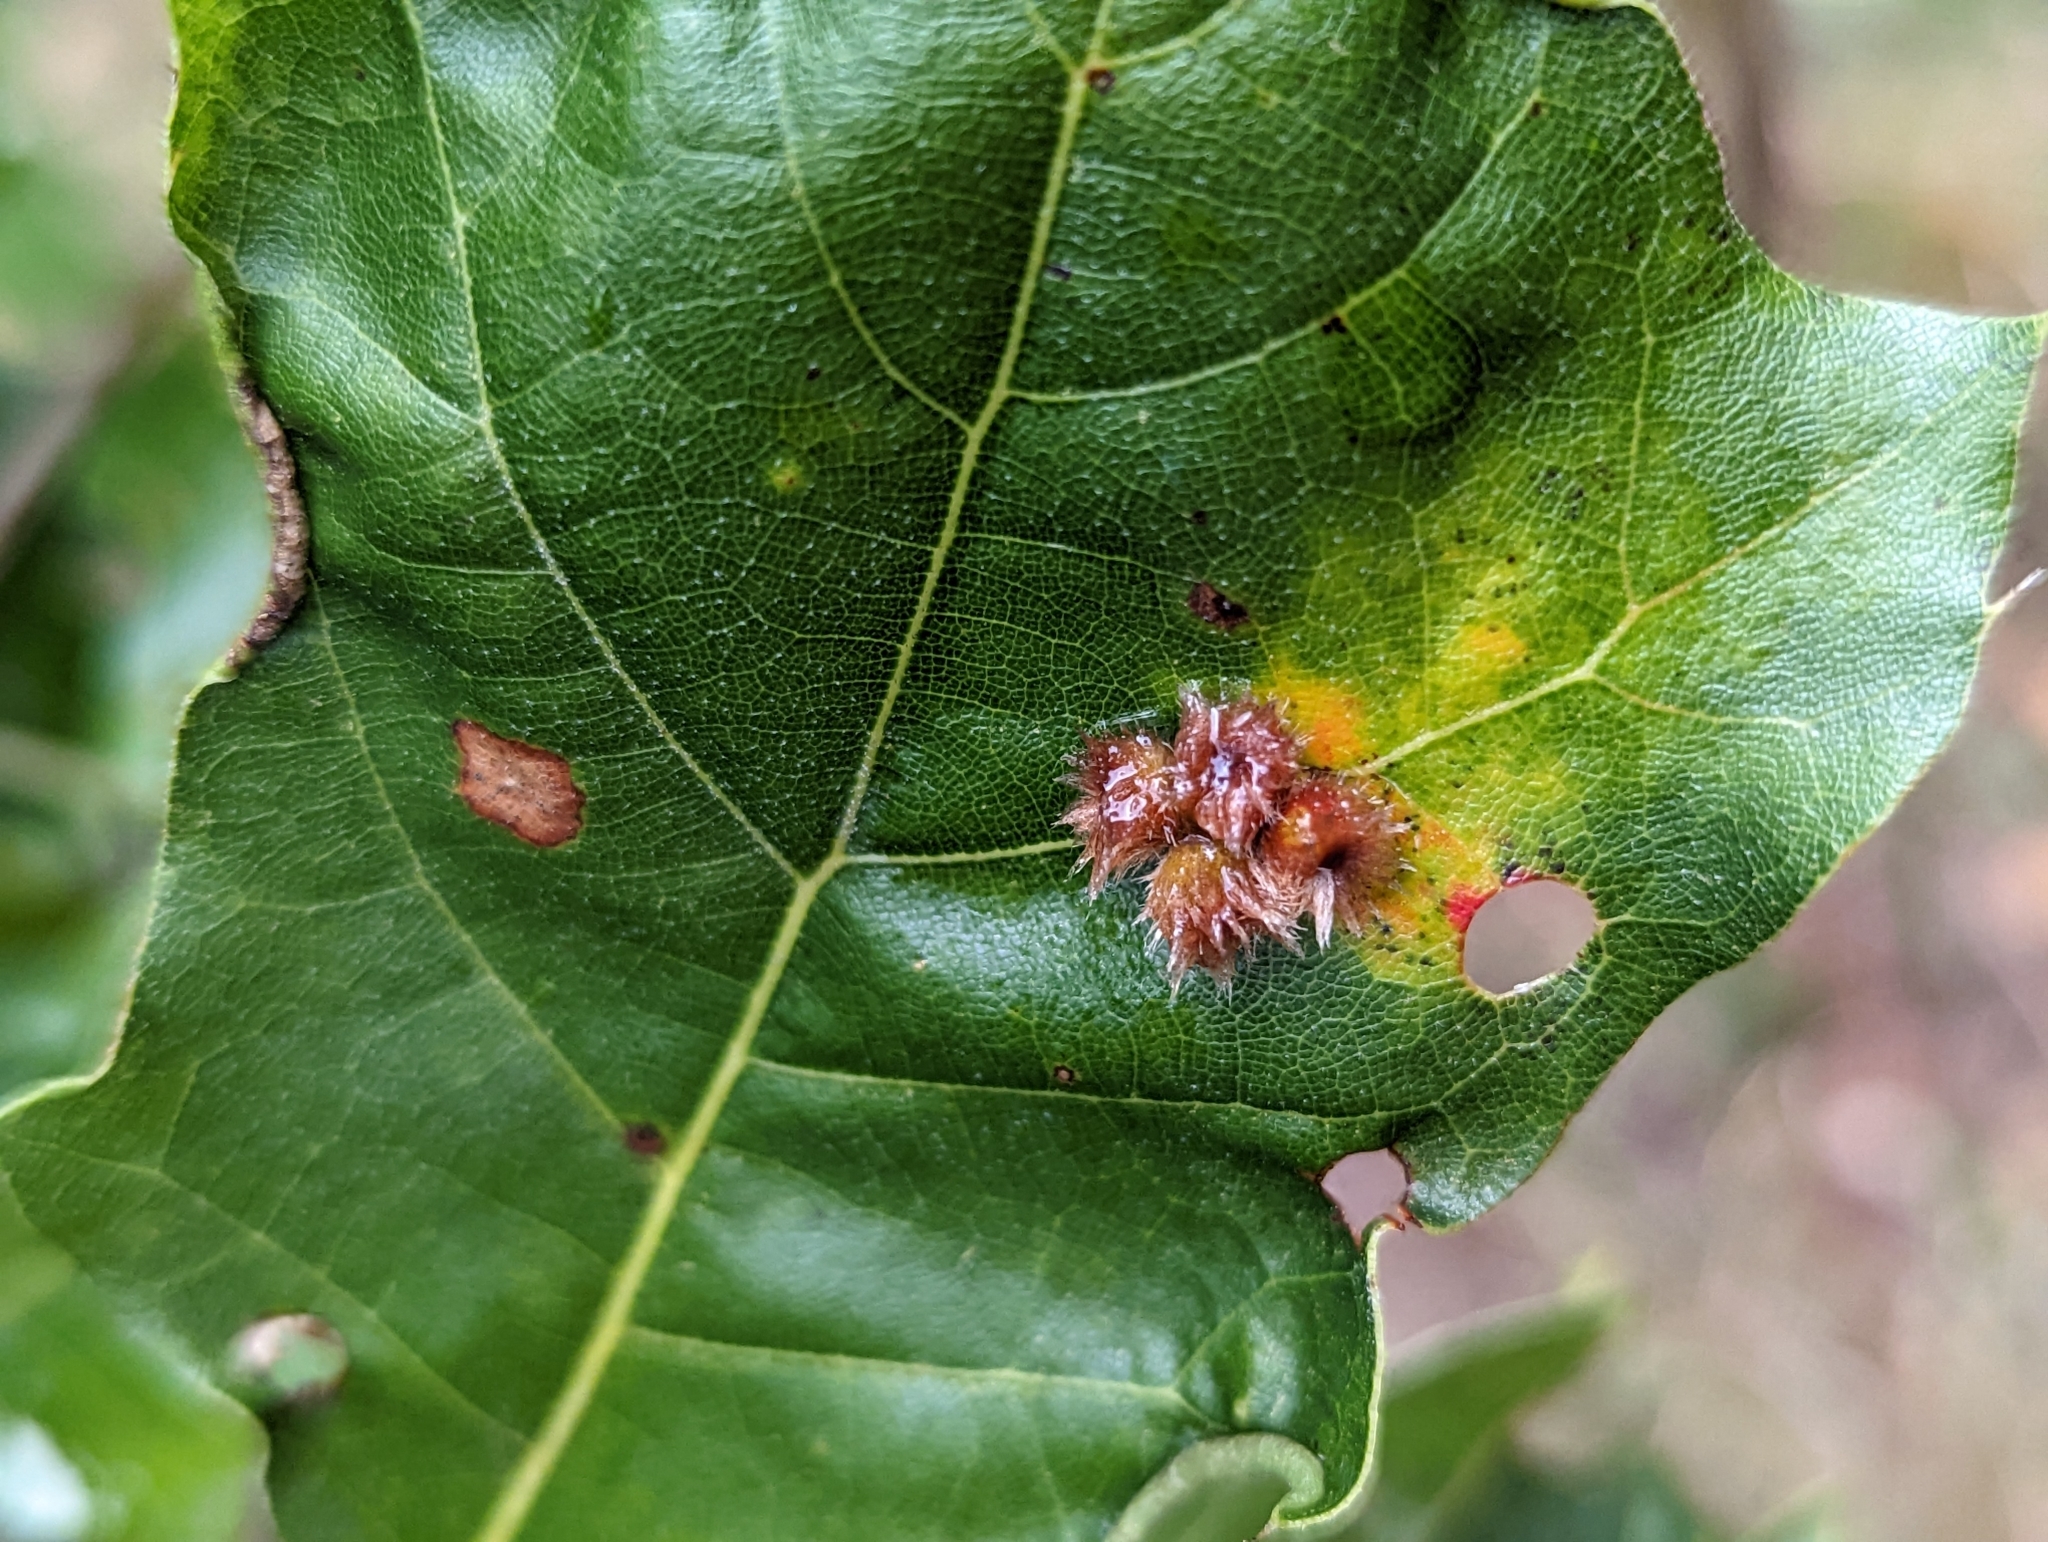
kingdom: Animalia
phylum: Arthropoda
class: Insecta
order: Hymenoptera
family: Cynipidae
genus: Callirhytis
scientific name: Callirhytis
